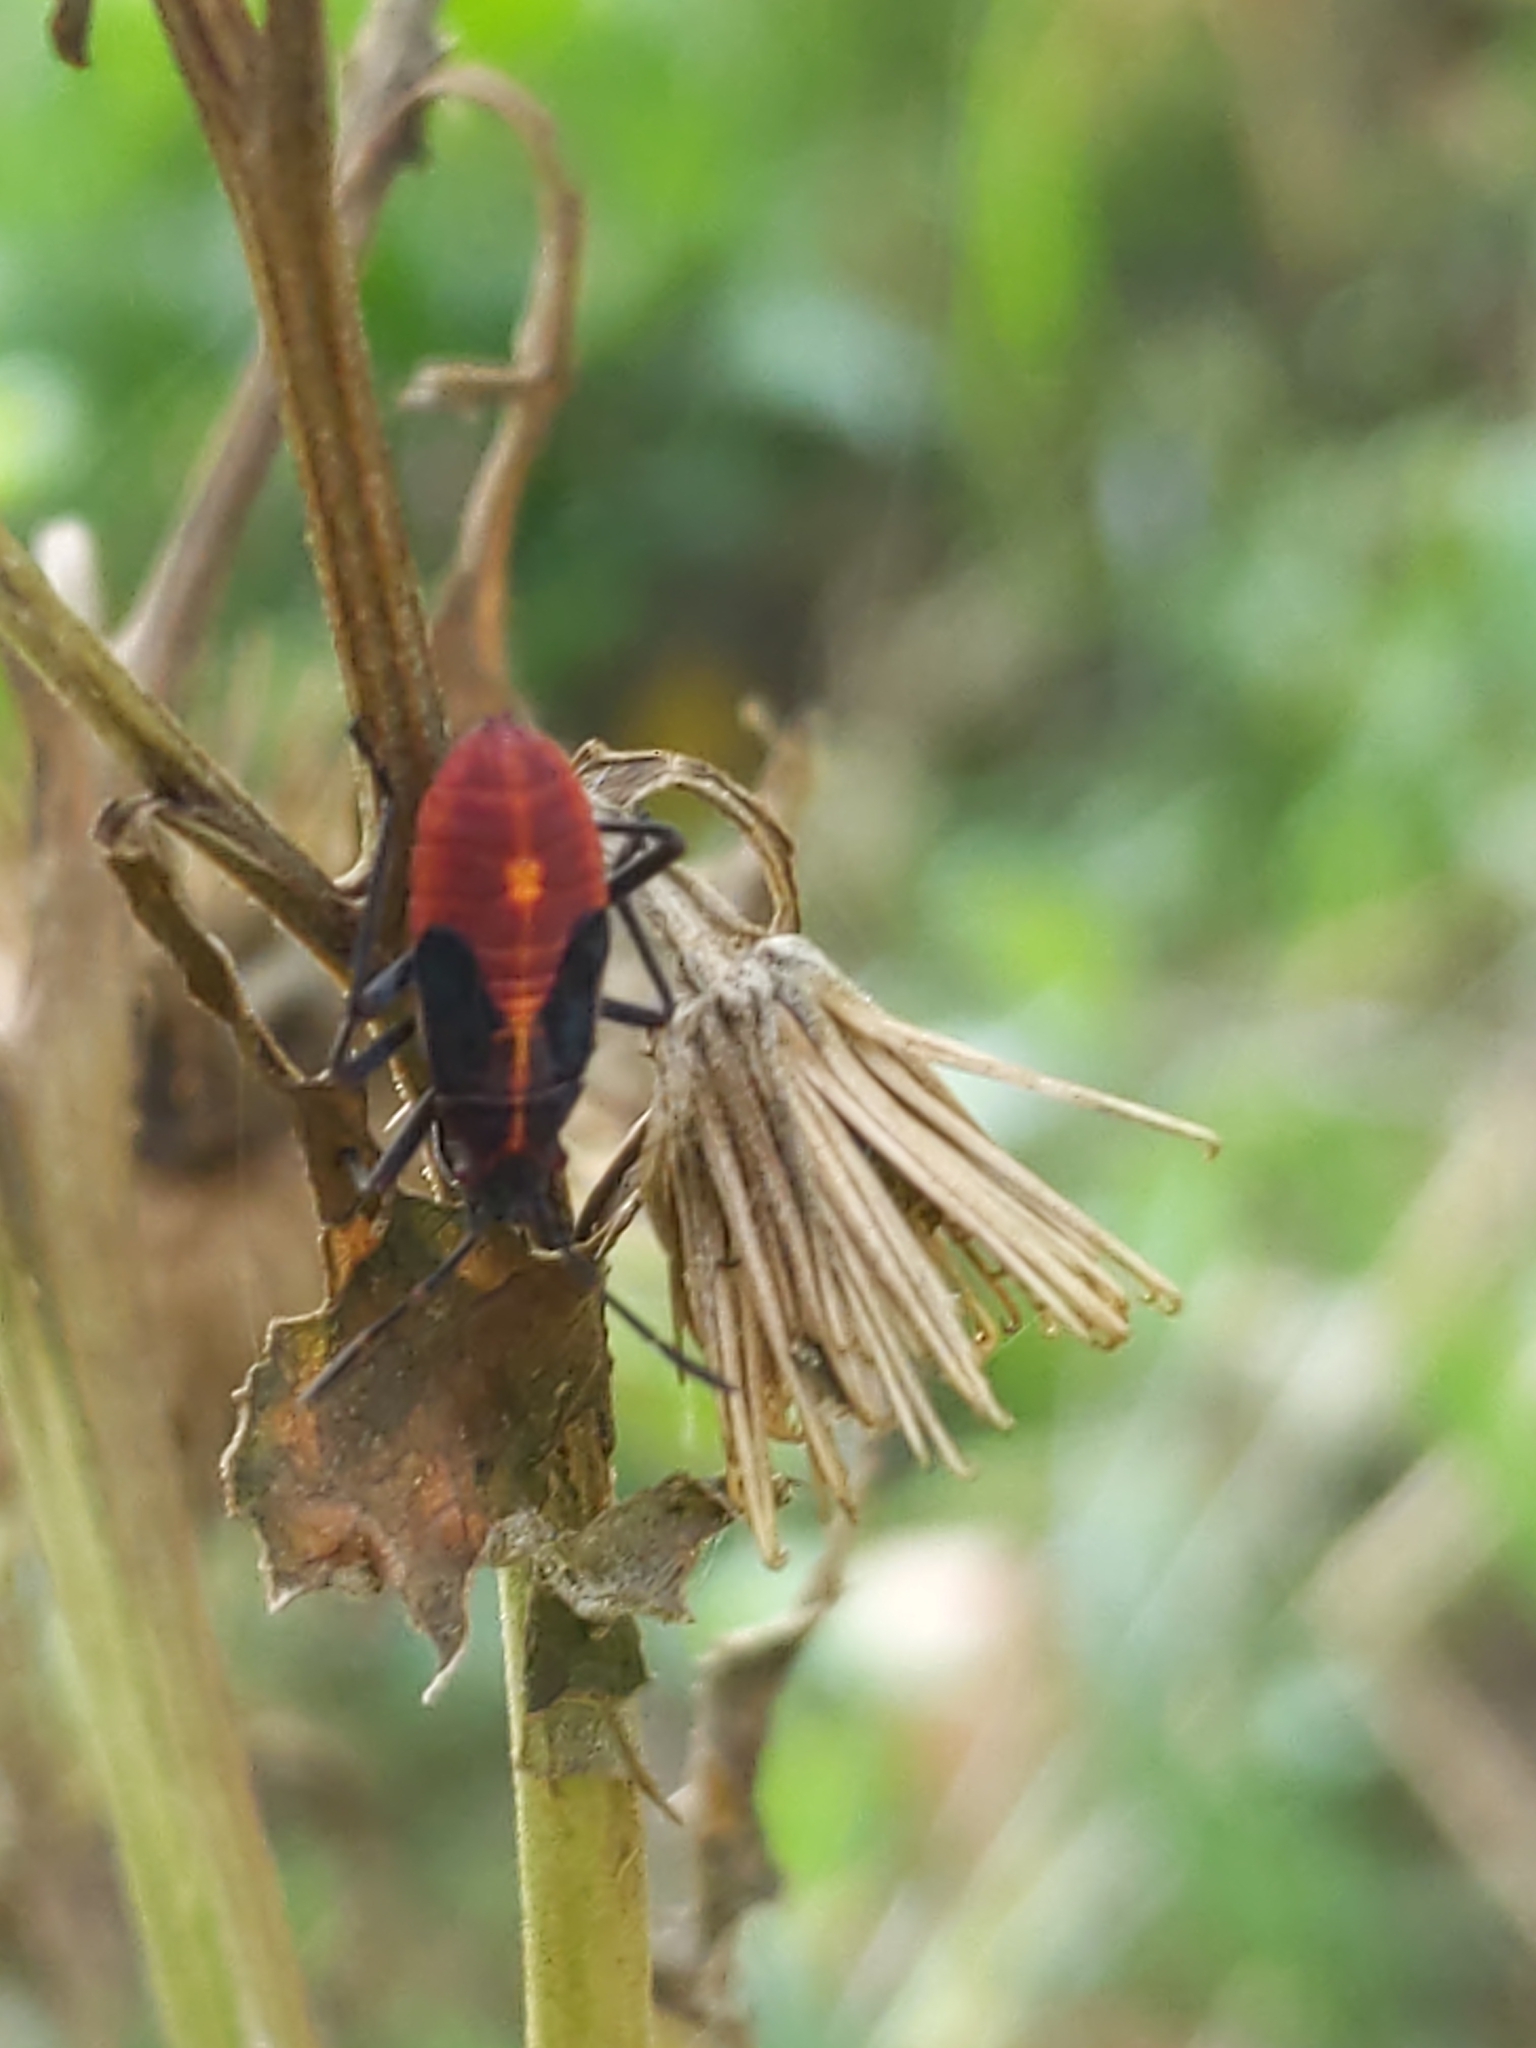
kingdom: Animalia
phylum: Arthropoda
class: Insecta
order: Hemiptera
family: Rhopalidae
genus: Boisea
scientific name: Boisea trivittata
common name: Boxelder bug
